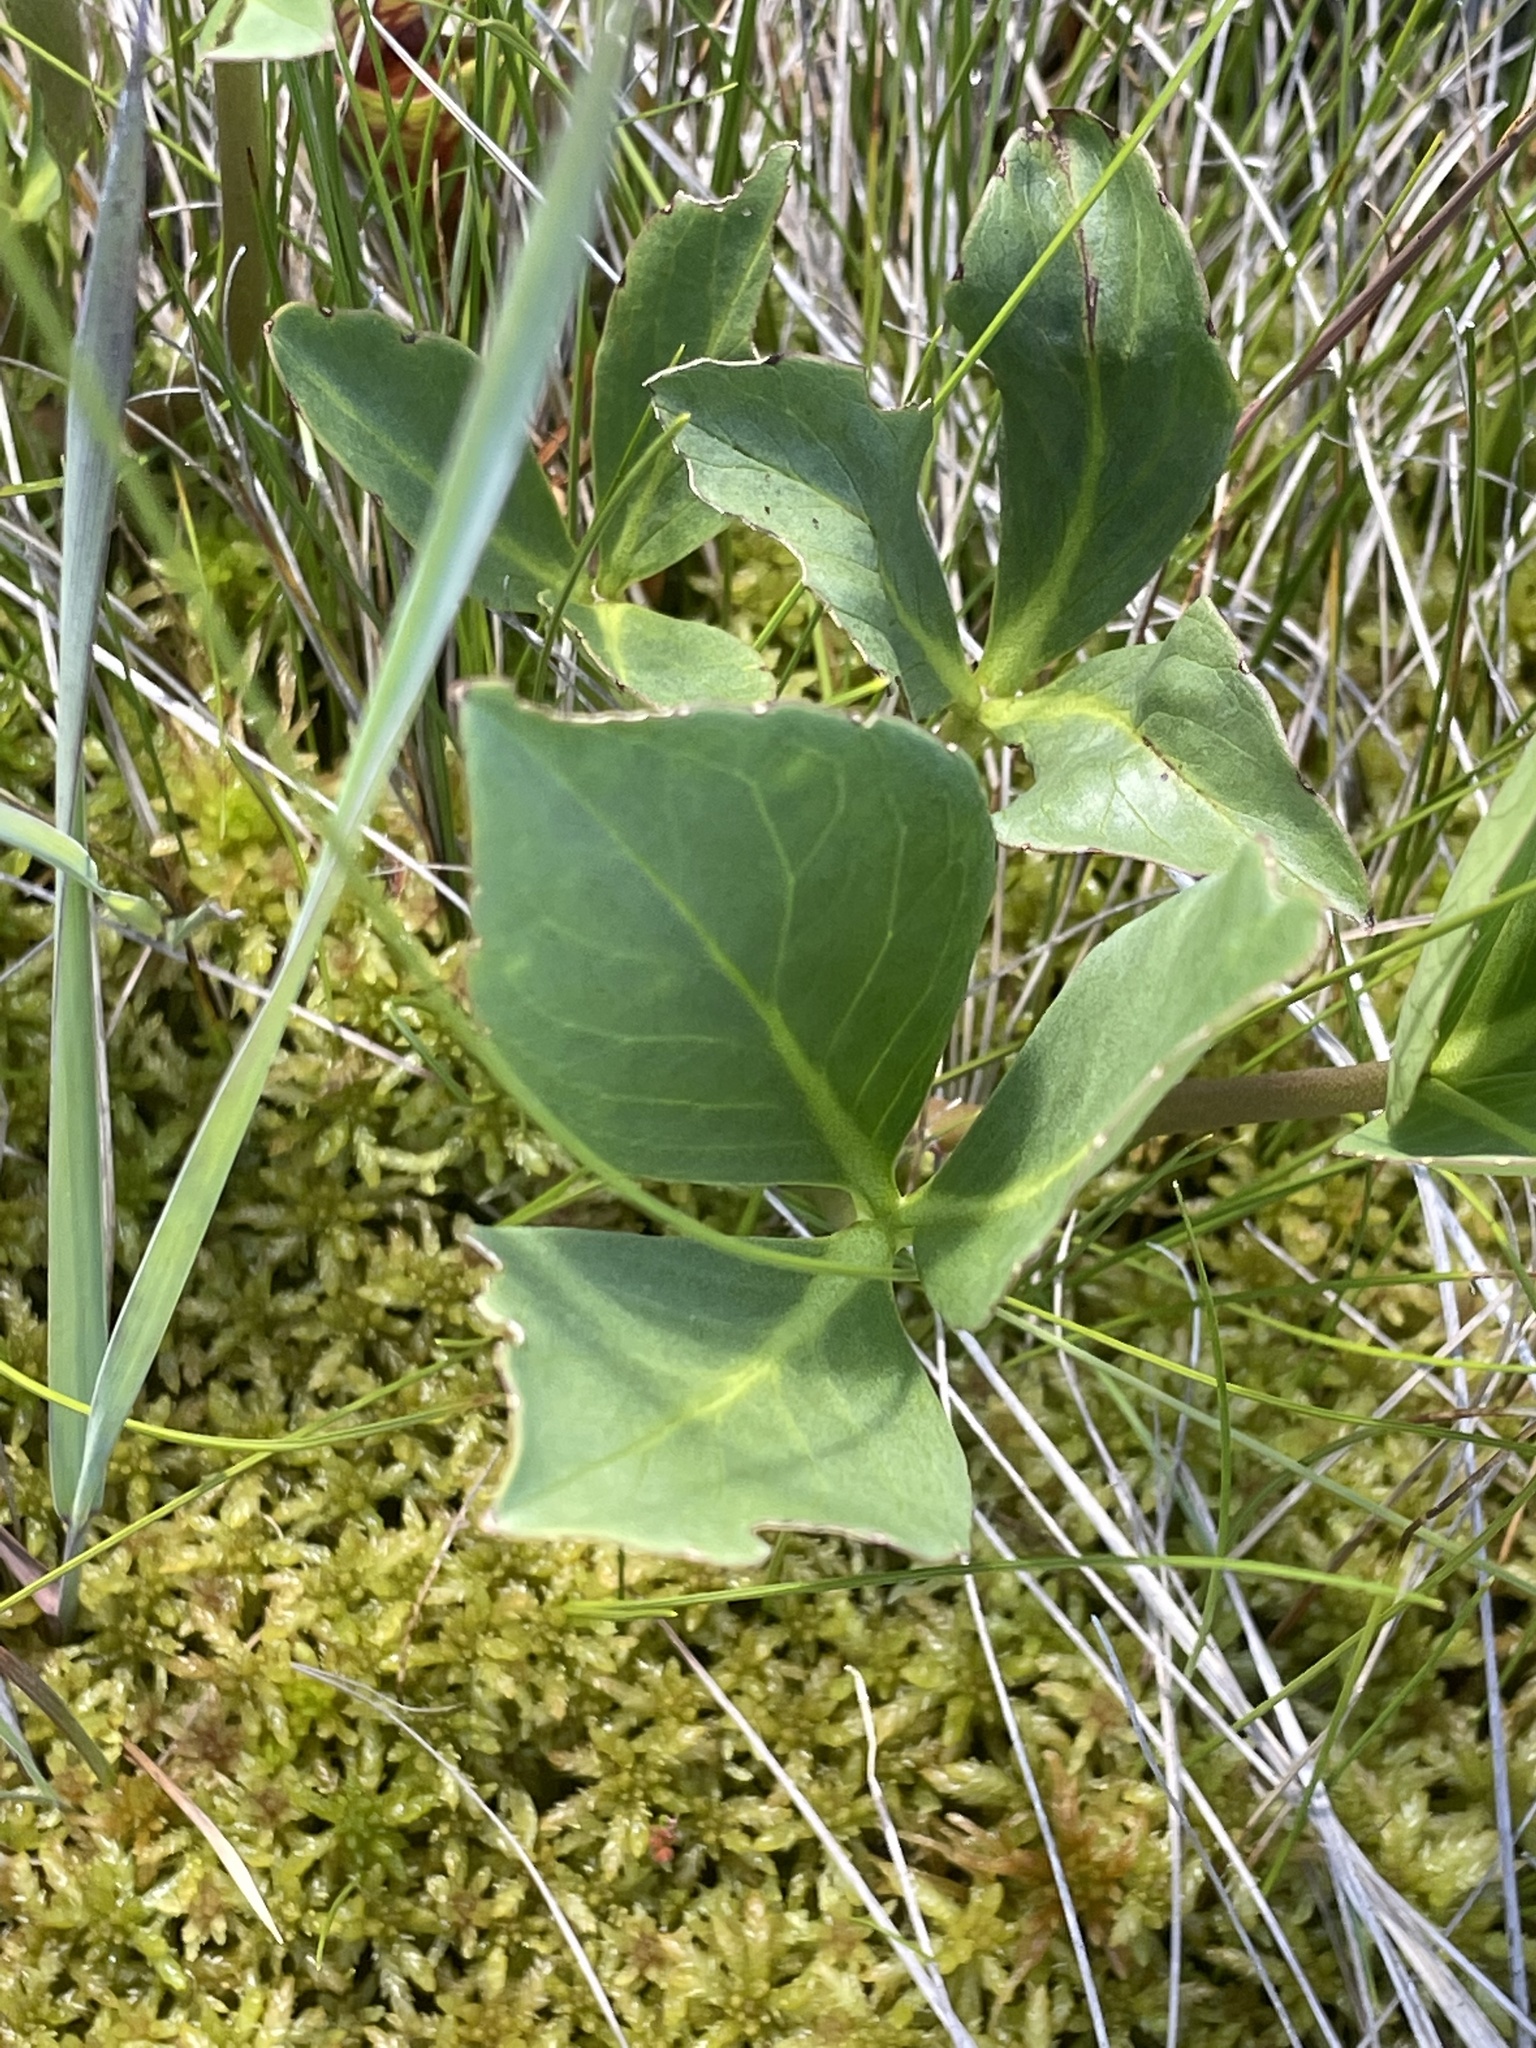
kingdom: Plantae
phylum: Tracheophyta
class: Magnoliopsida
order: Asterales
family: Menyanthaceae
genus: Menyanthes
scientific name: Menyanthes trifoliata
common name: Bogbean
